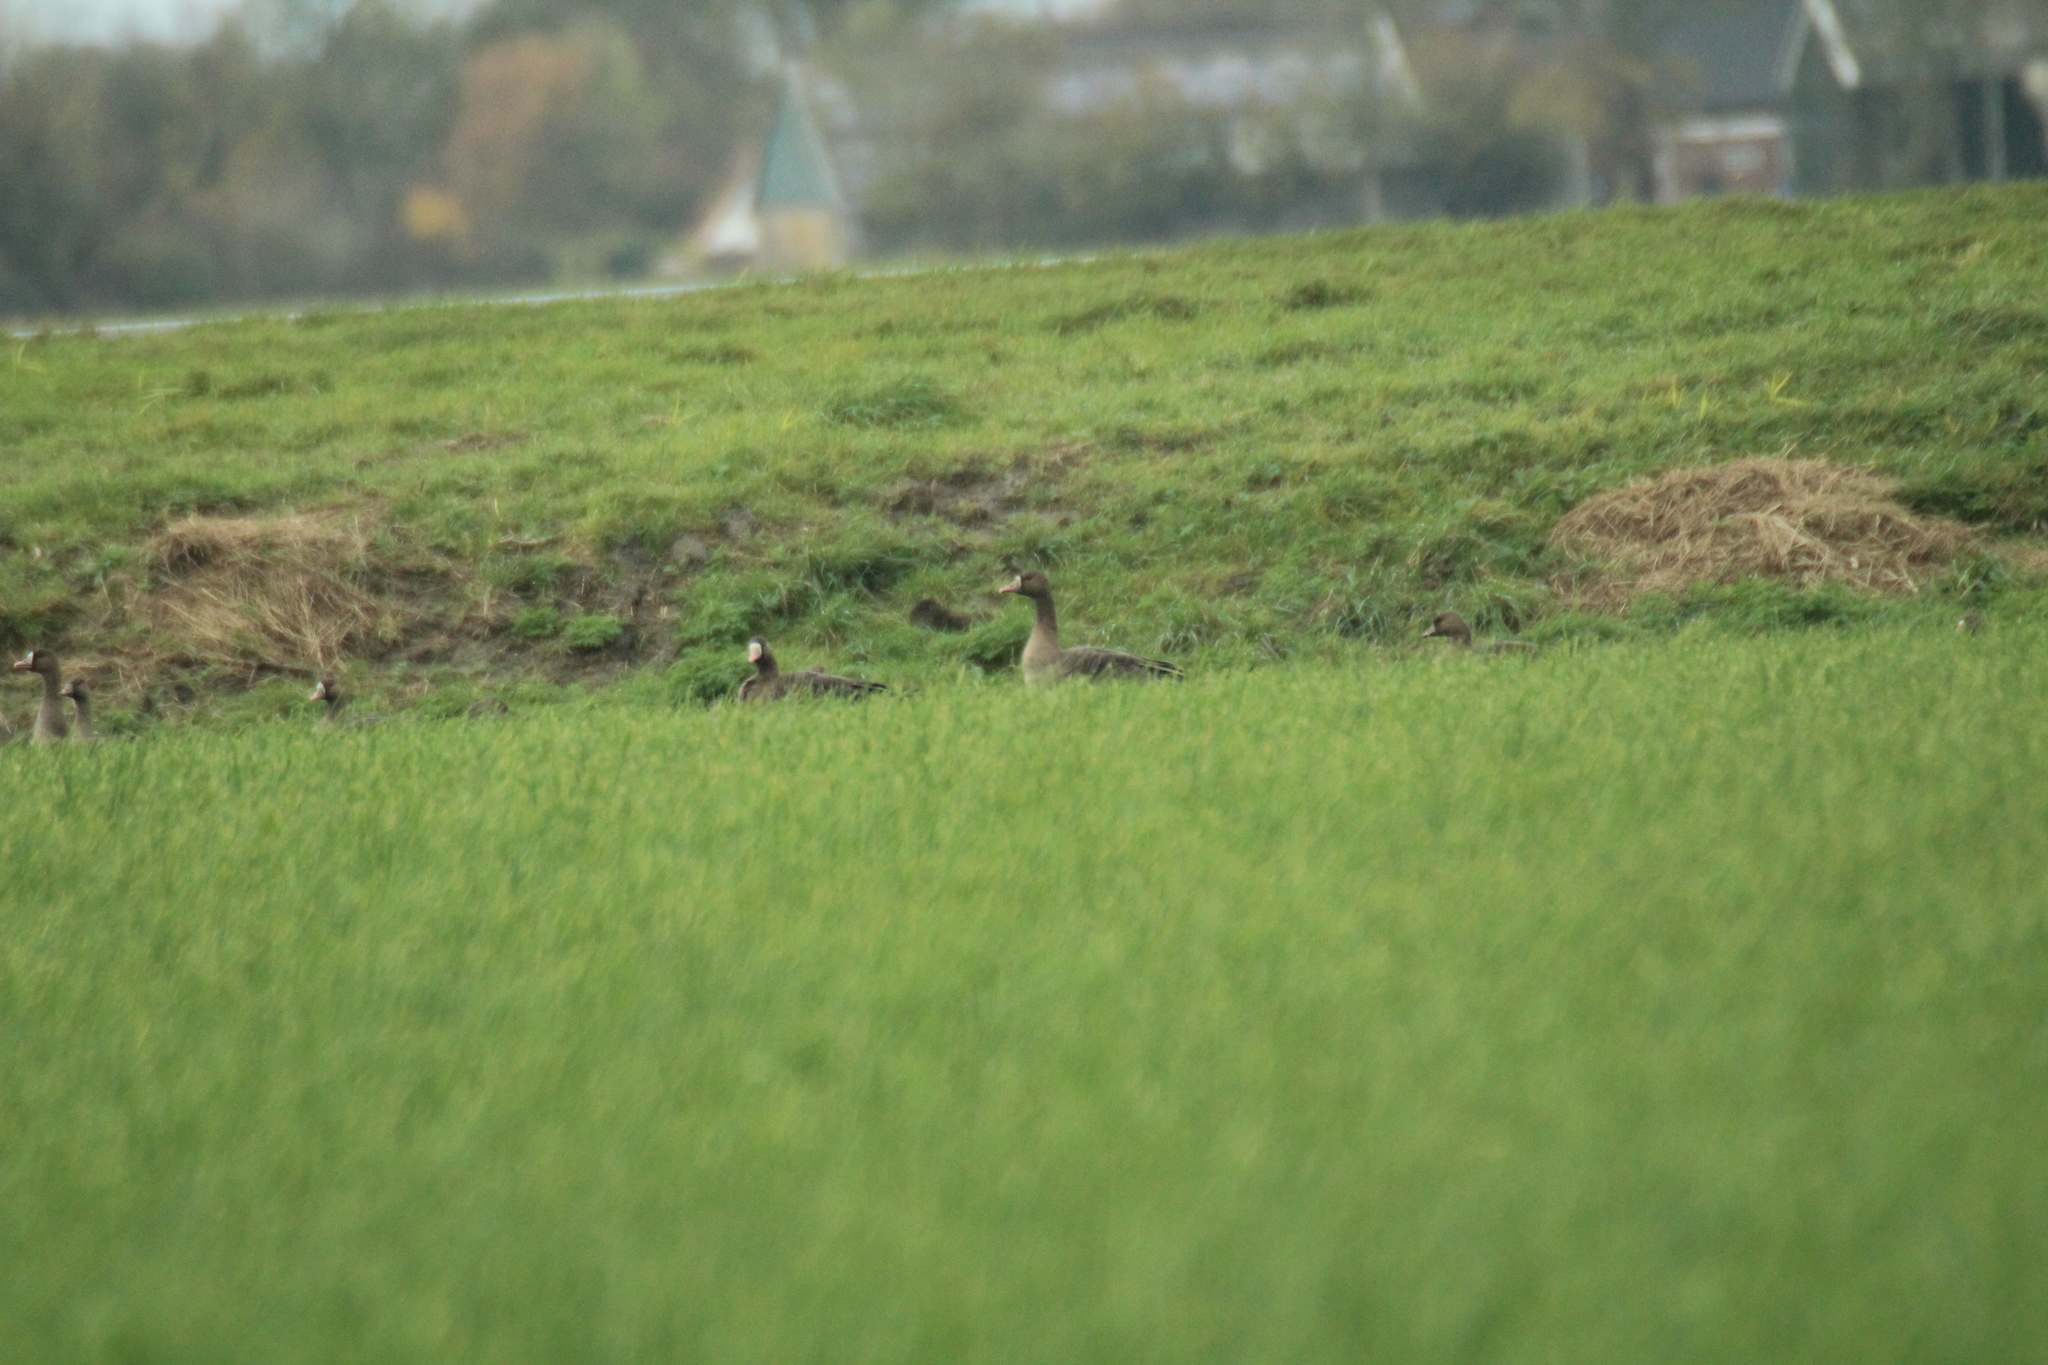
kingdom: Animalia
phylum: Chordata
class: Aves
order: Anseriformes
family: Anatidae
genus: Anser
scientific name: Anser albifrons
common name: Greater white-fronted goose
